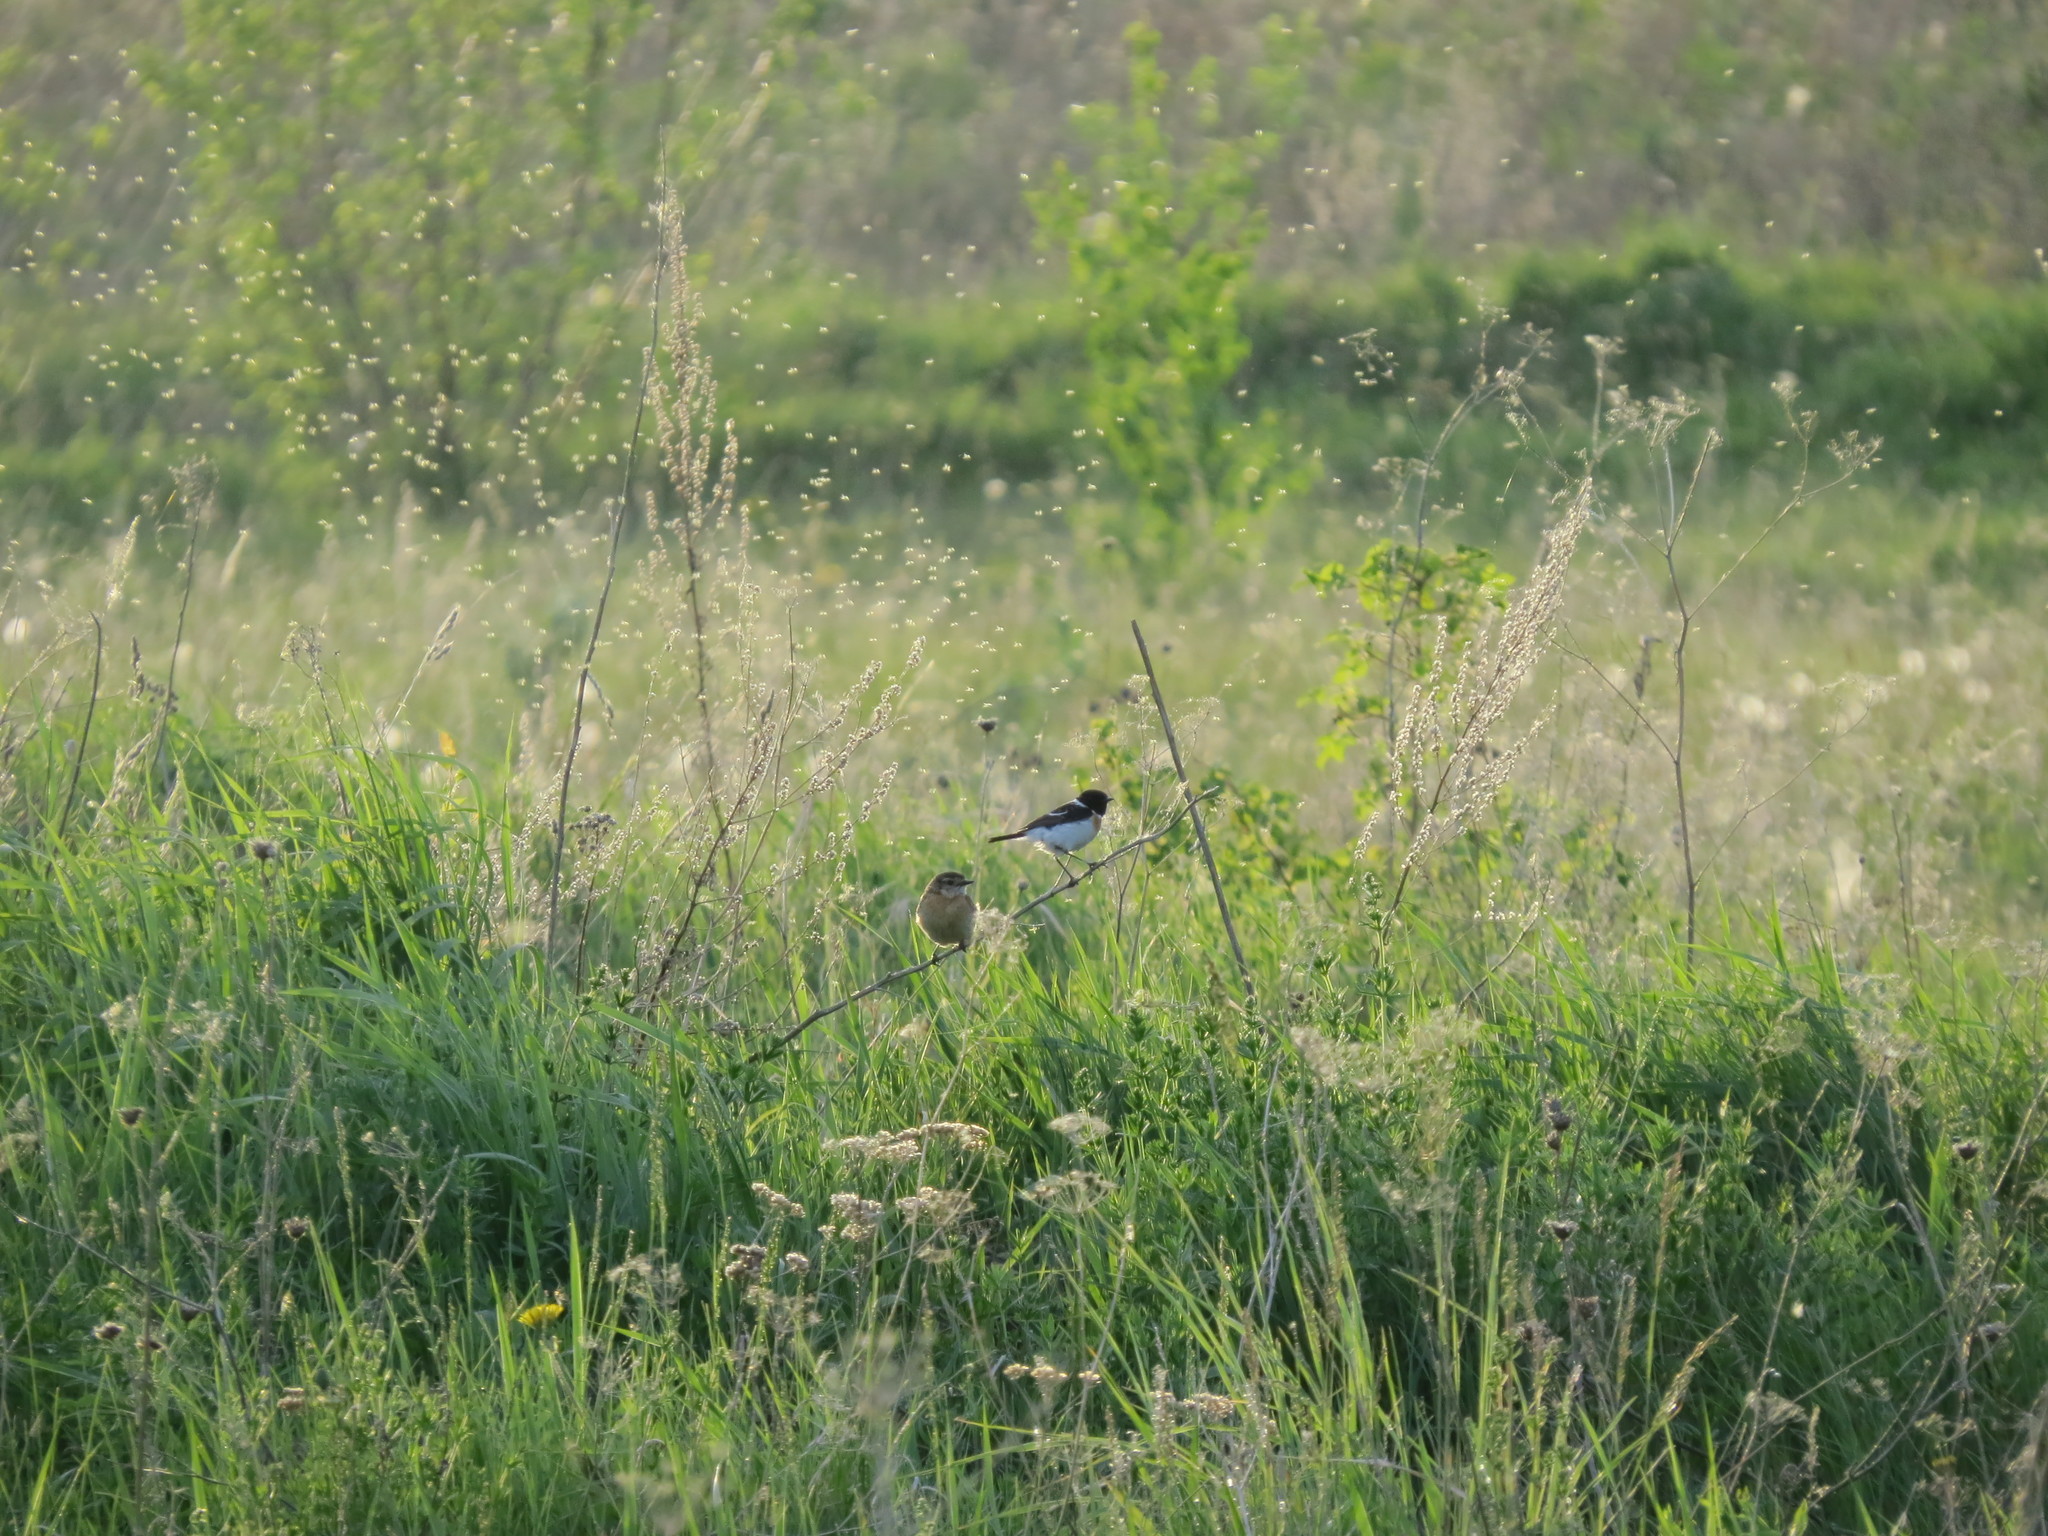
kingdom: Animalia
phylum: Chordata
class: Aves
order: Passeriformes
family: Muscicapidae
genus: Saxicola
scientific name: Saxicola maurus
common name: Siberian stonechat
